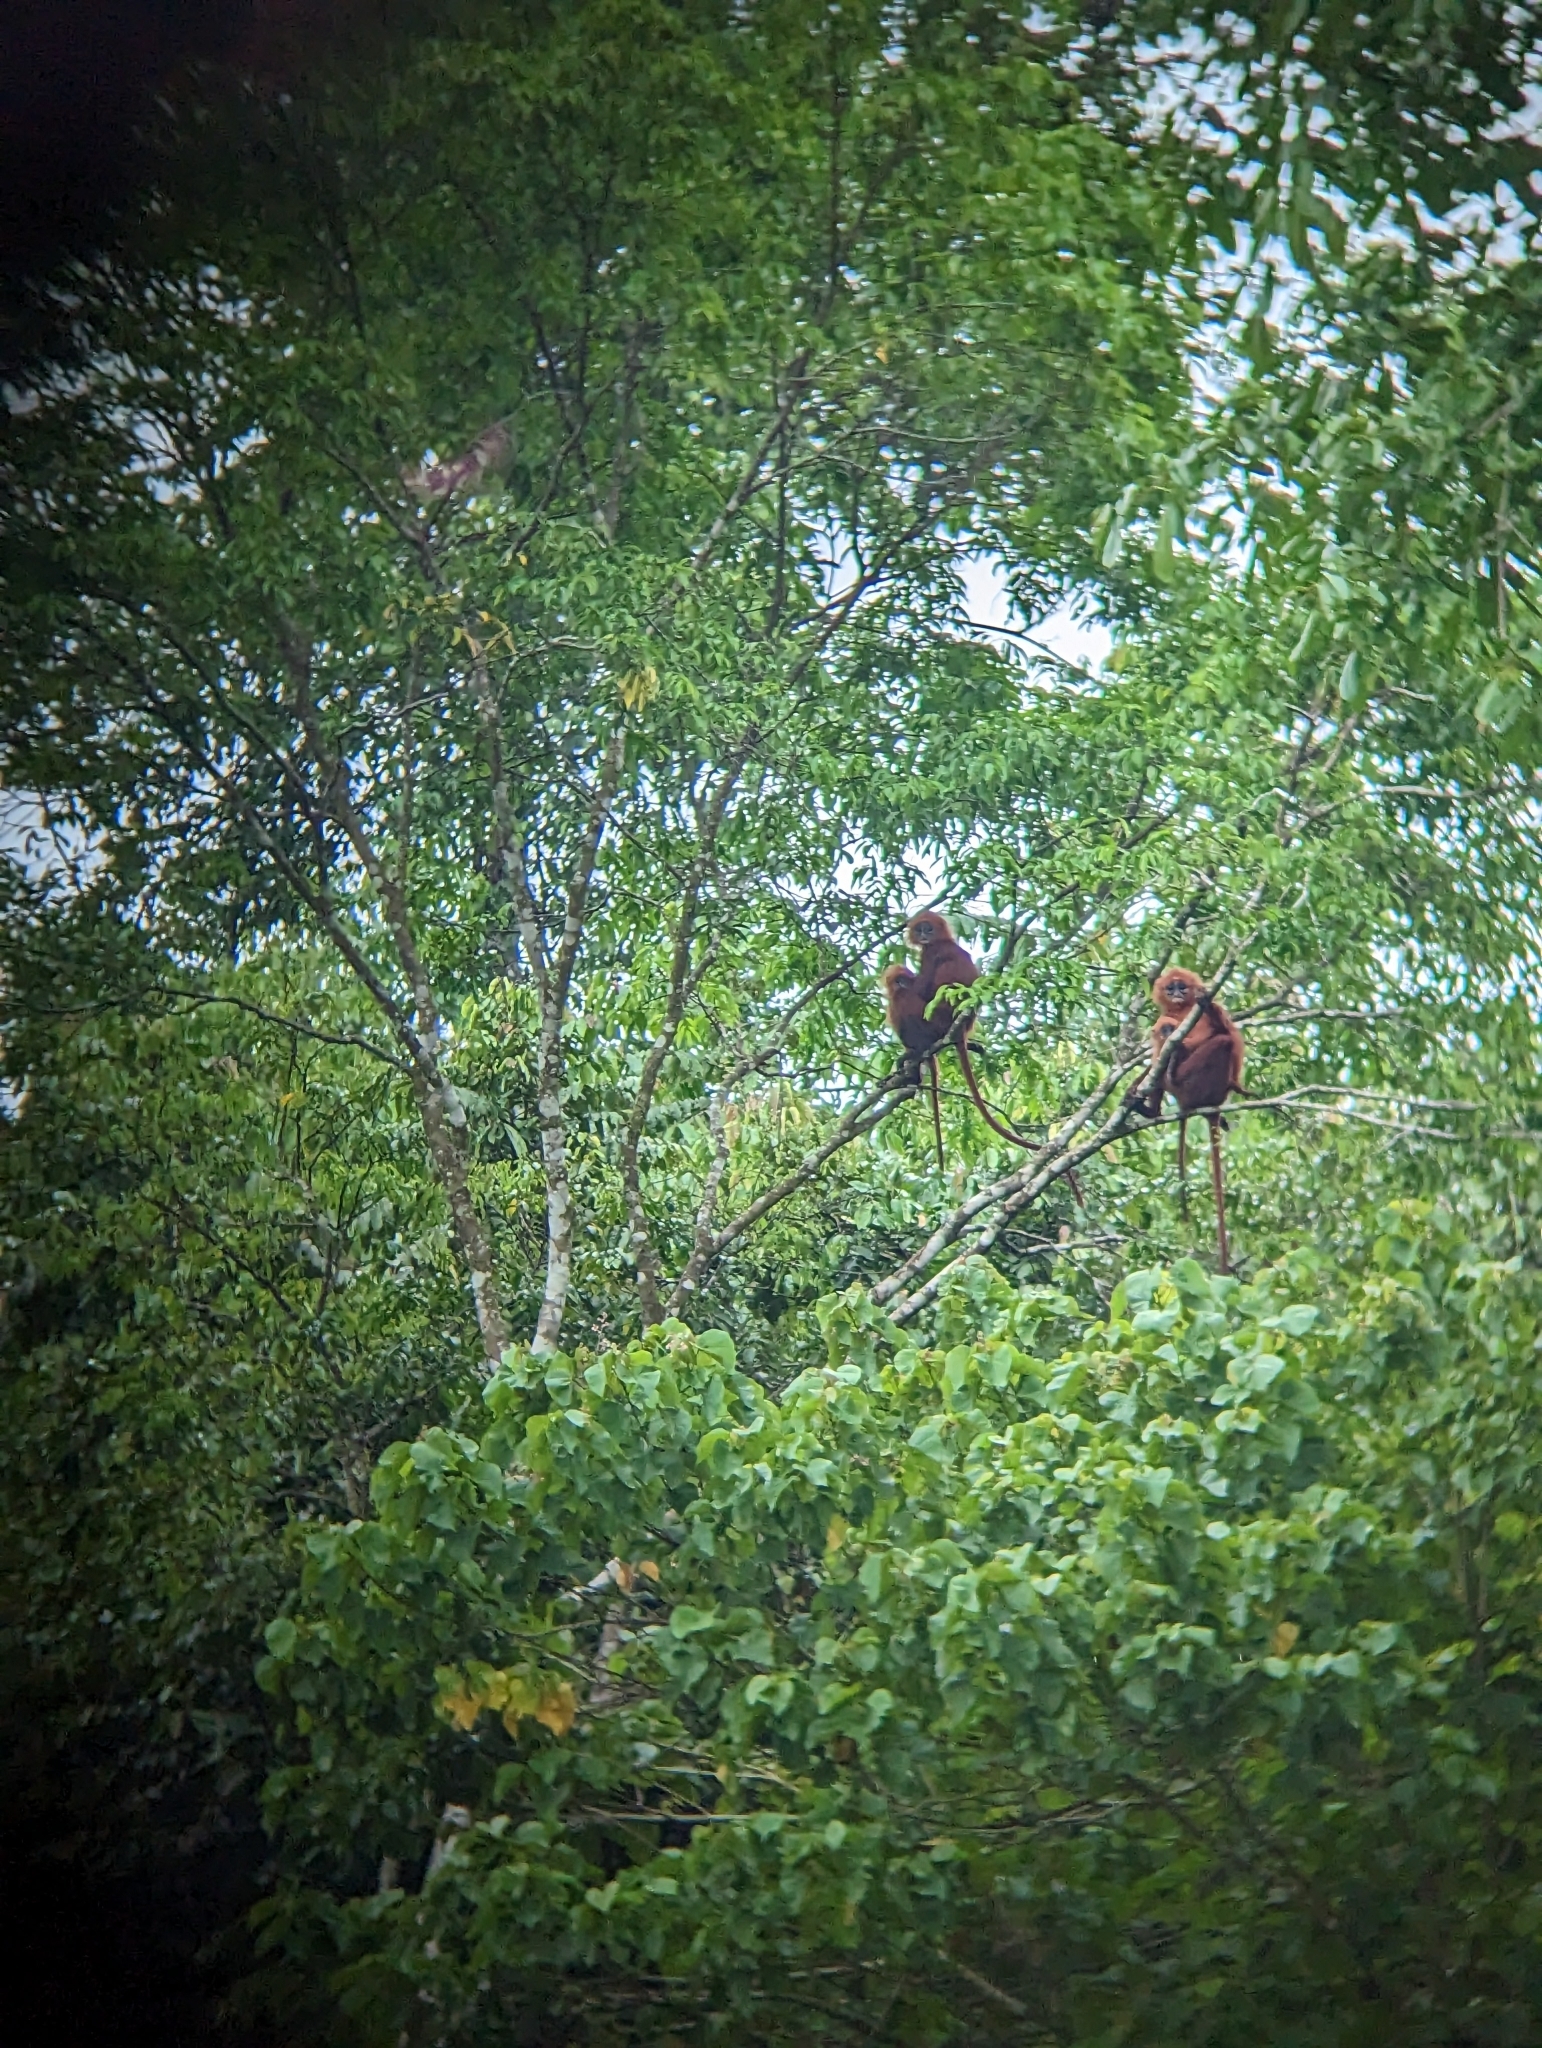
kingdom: Animalia
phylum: Chordata
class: Mammalia
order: Primates
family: Cercopithecidae
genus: Presbytis
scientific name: Presbytis rubicunda
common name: Maroon leaf monkey
